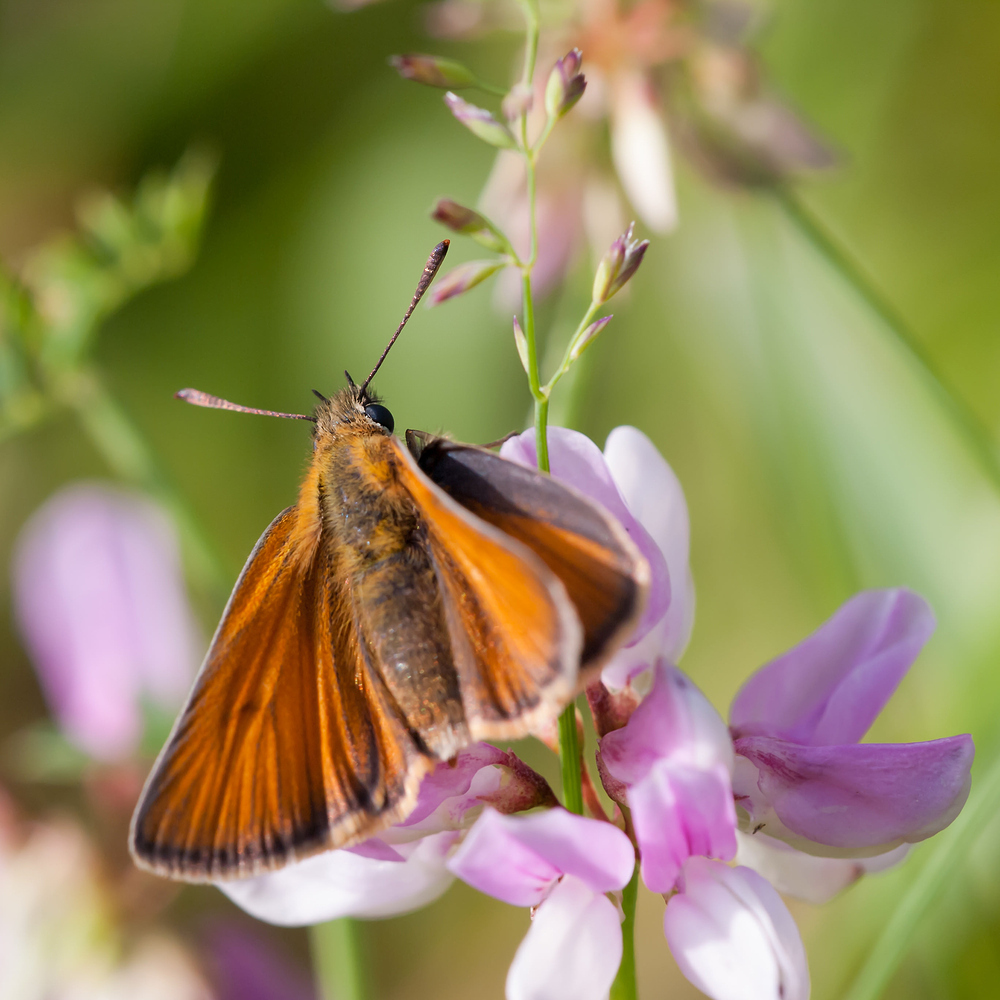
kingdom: Animalia
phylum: Arthropoda
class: Insecta
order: Lepidoptera
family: Hesperiidae
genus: Thymelicus
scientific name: Thymelicus sylvestris
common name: Small skipper
